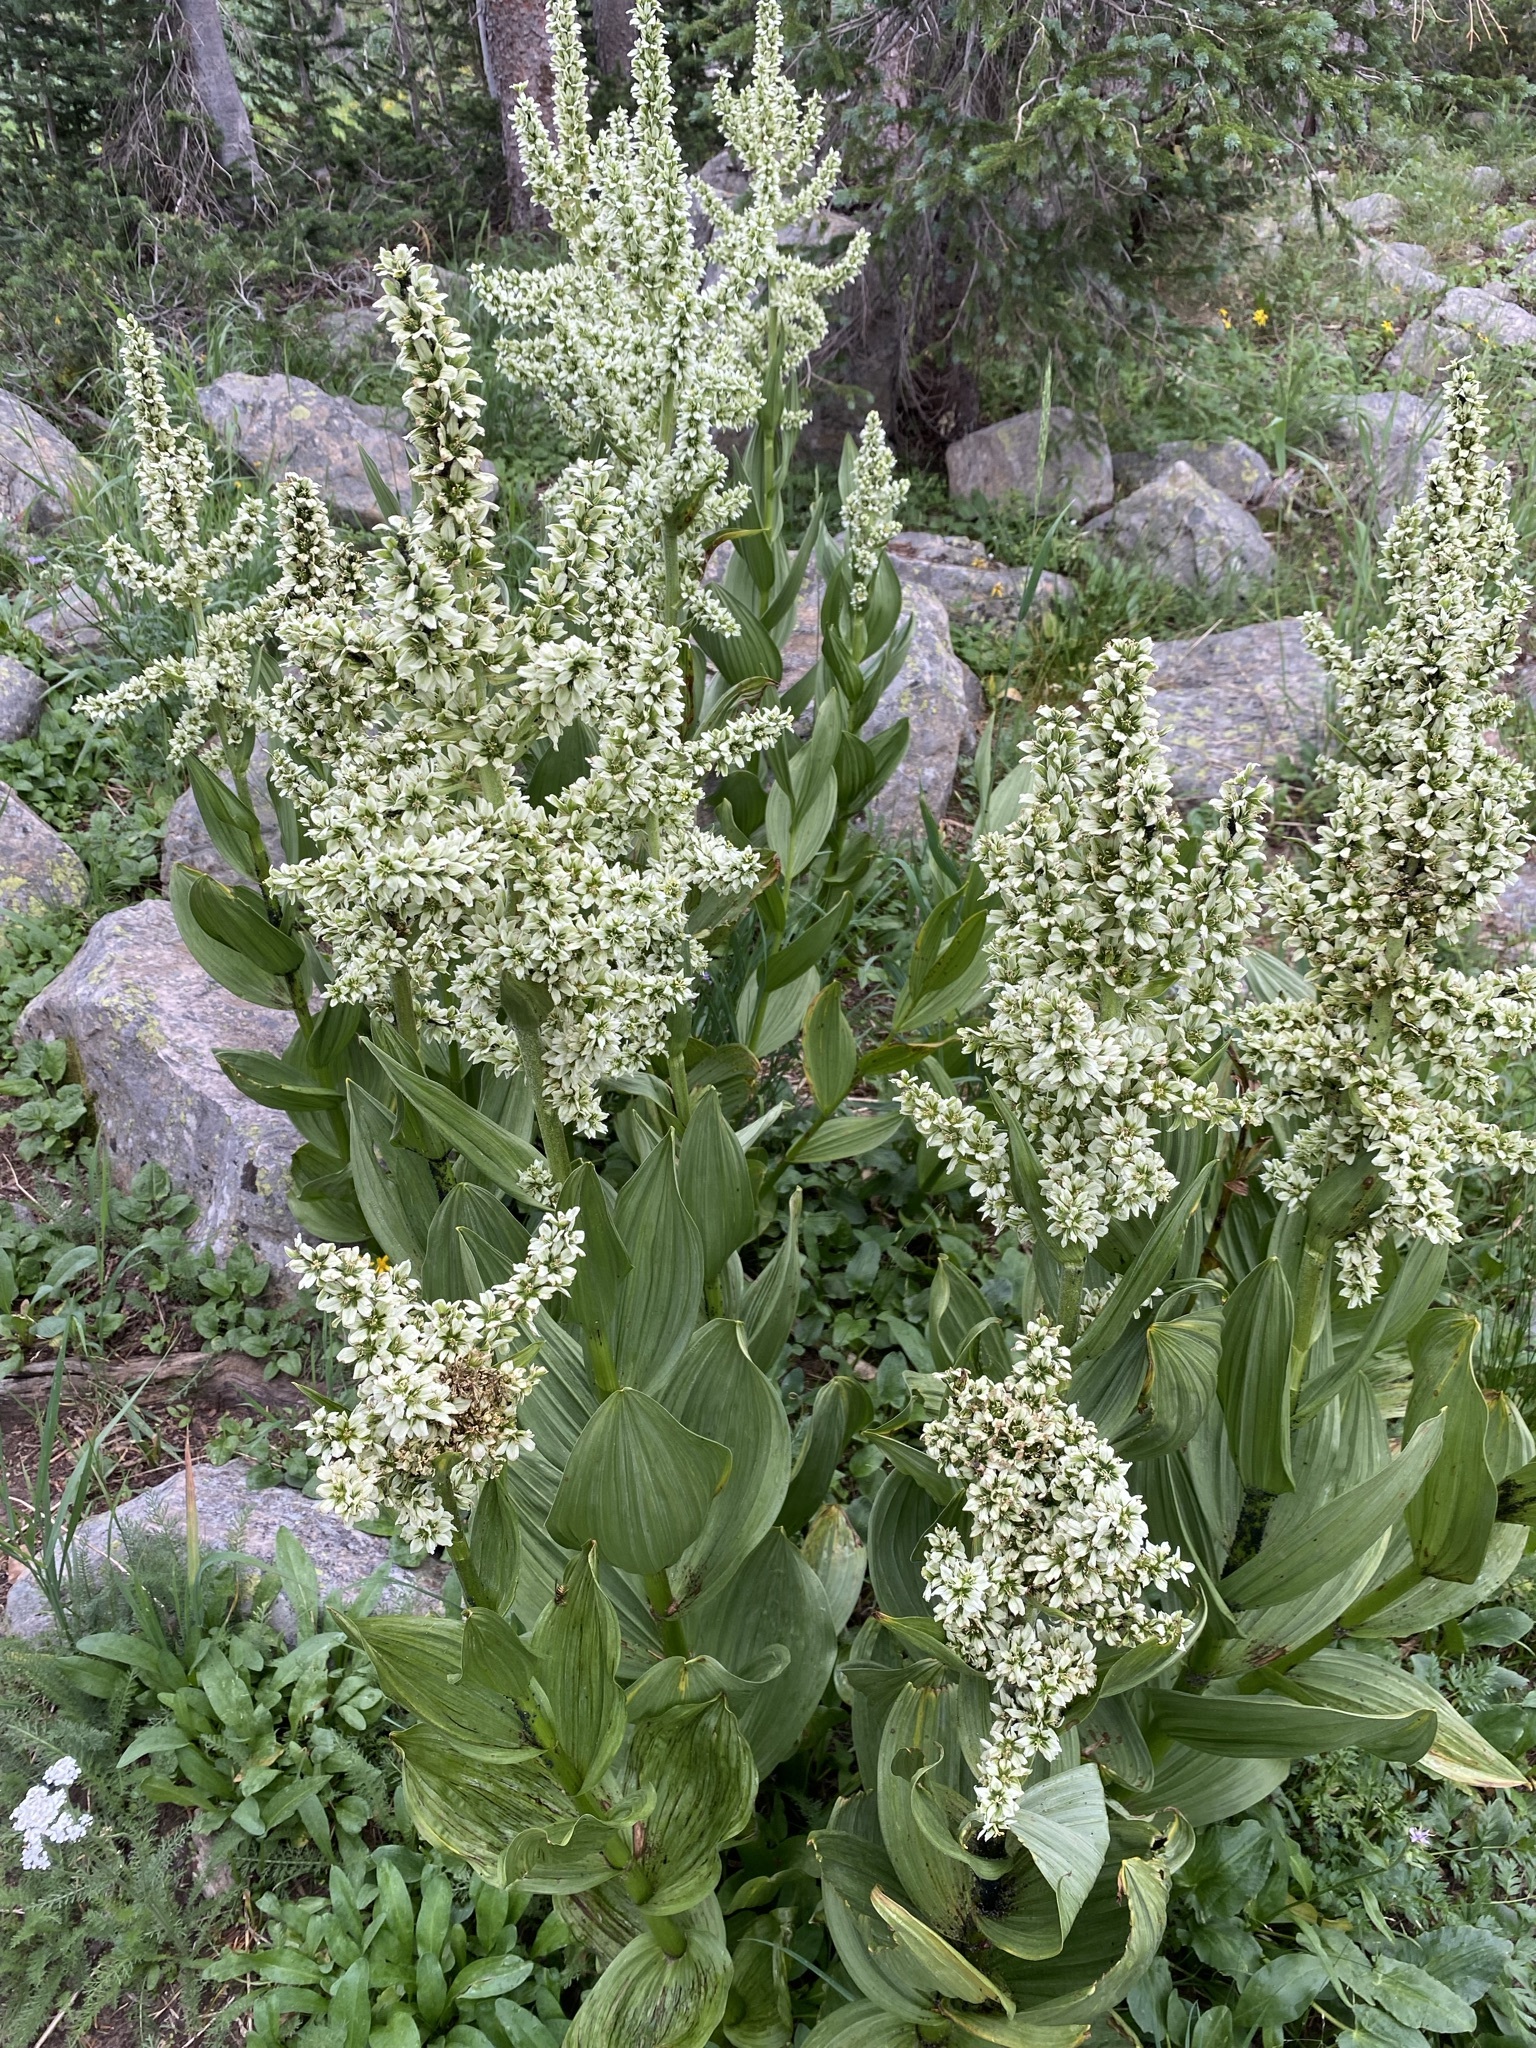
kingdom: Plantae
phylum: Tracheophyta
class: Liliopsida
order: Liliales
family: Melanthiaceae
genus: Veratrum
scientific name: Veratrum californicum
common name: California veratrum
